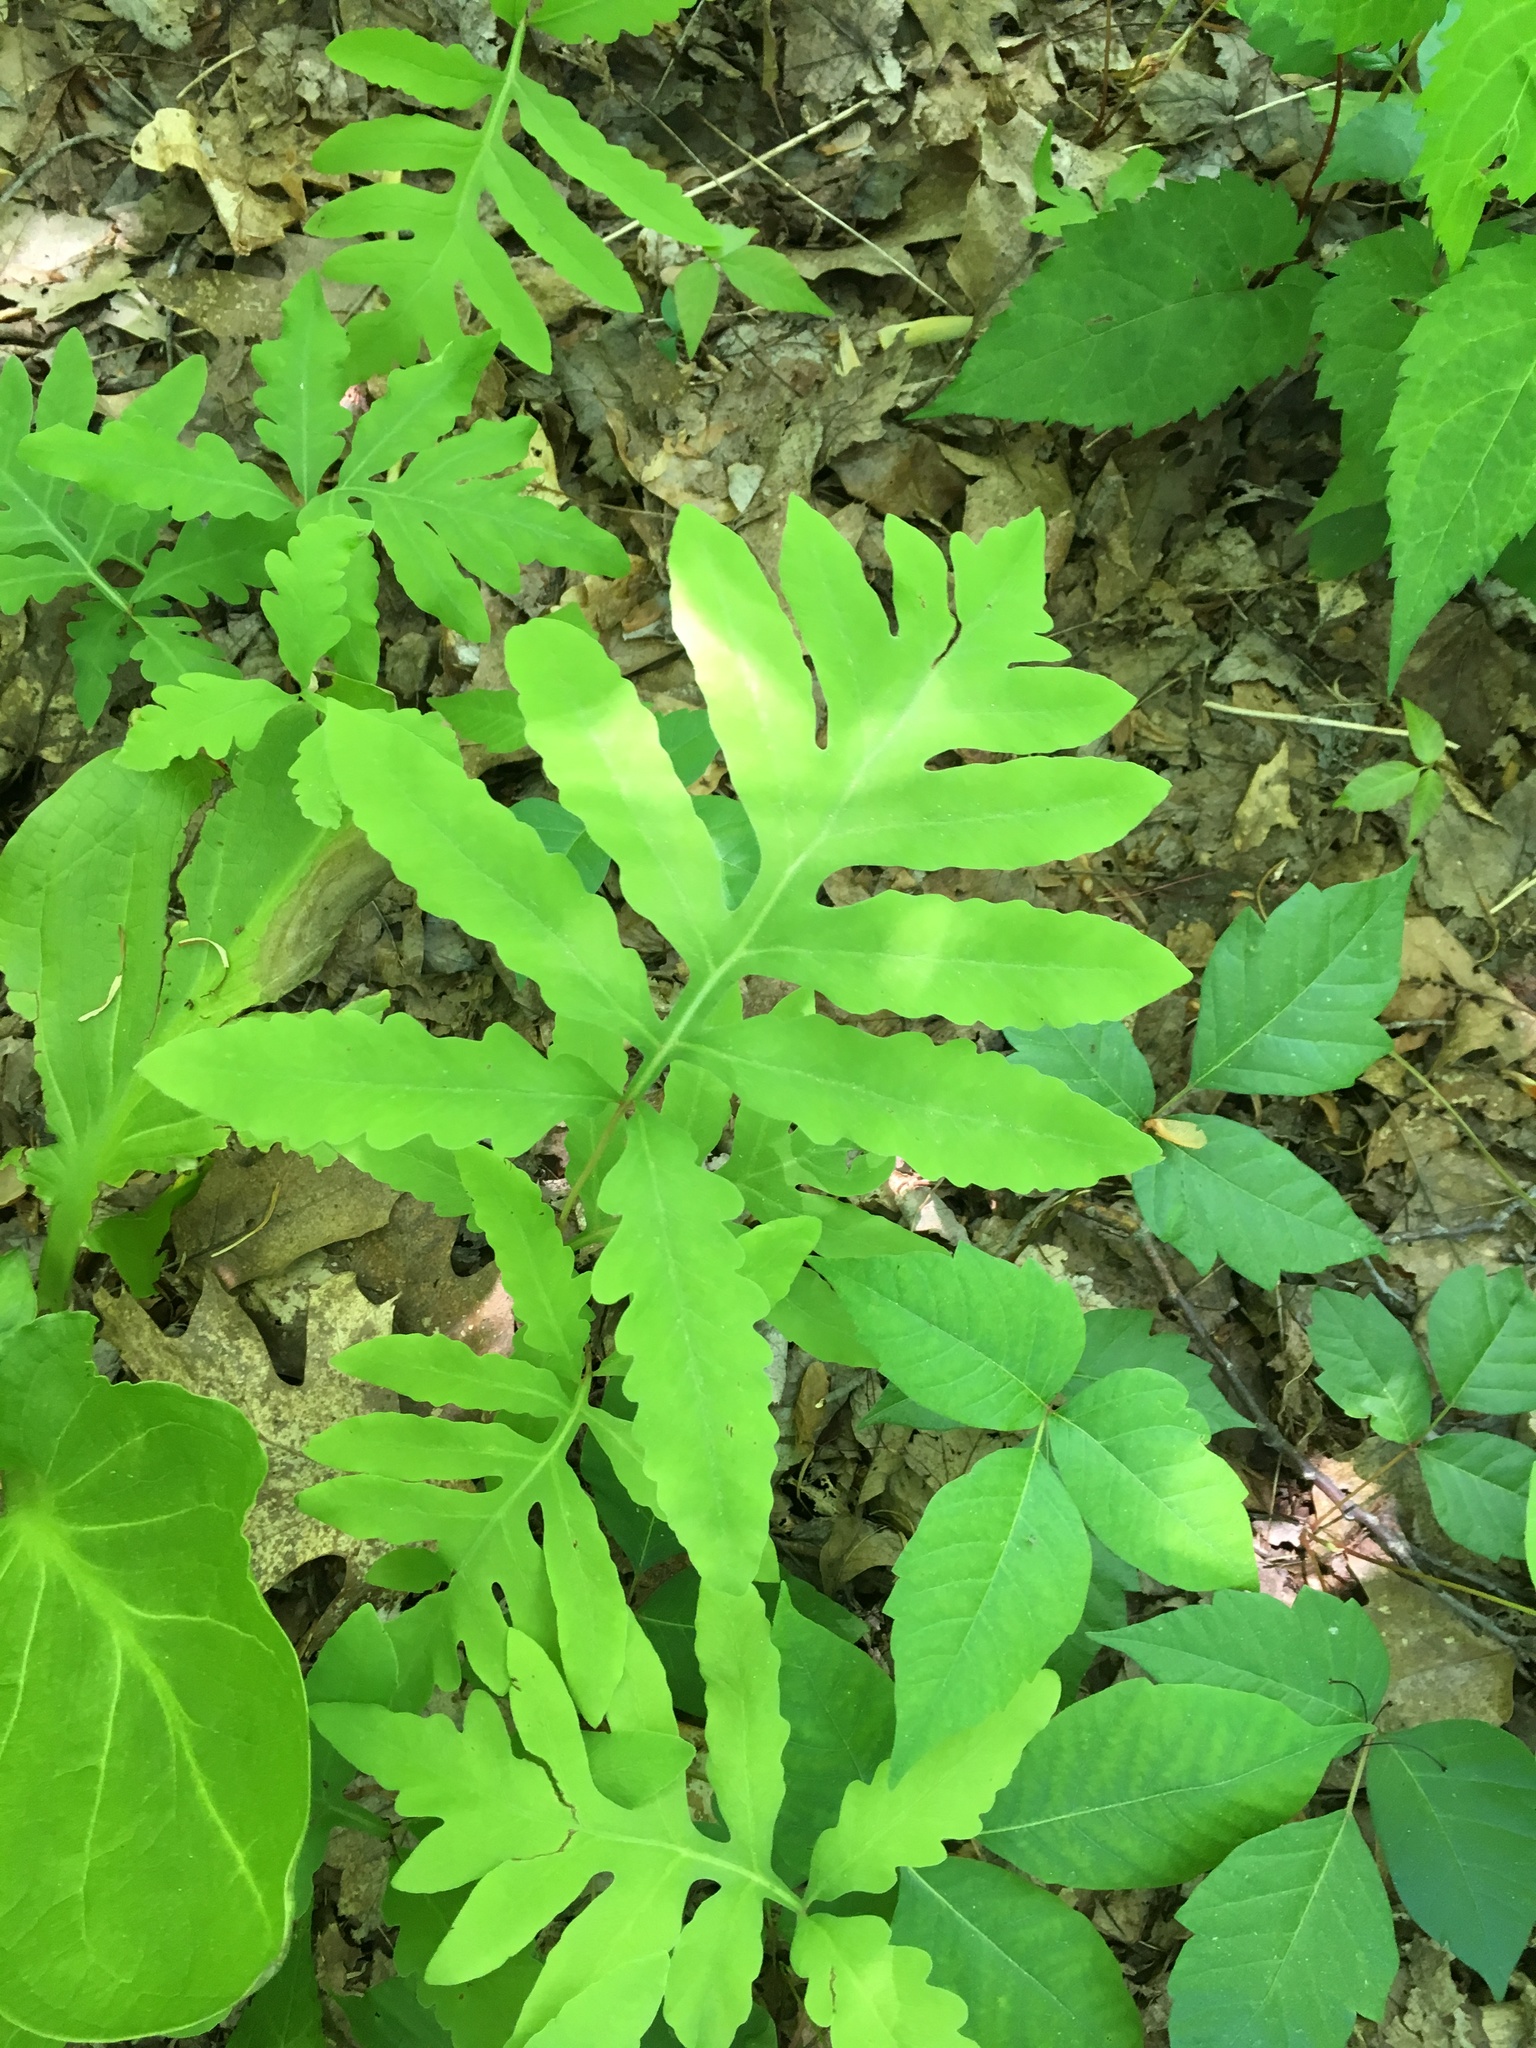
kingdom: Plantae
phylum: Tracheophyta
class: Polypodiopsida
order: Polypodiales
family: Onocleaceae
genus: Onoclea
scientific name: Onoclea sensibilis
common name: Sensitive fern
